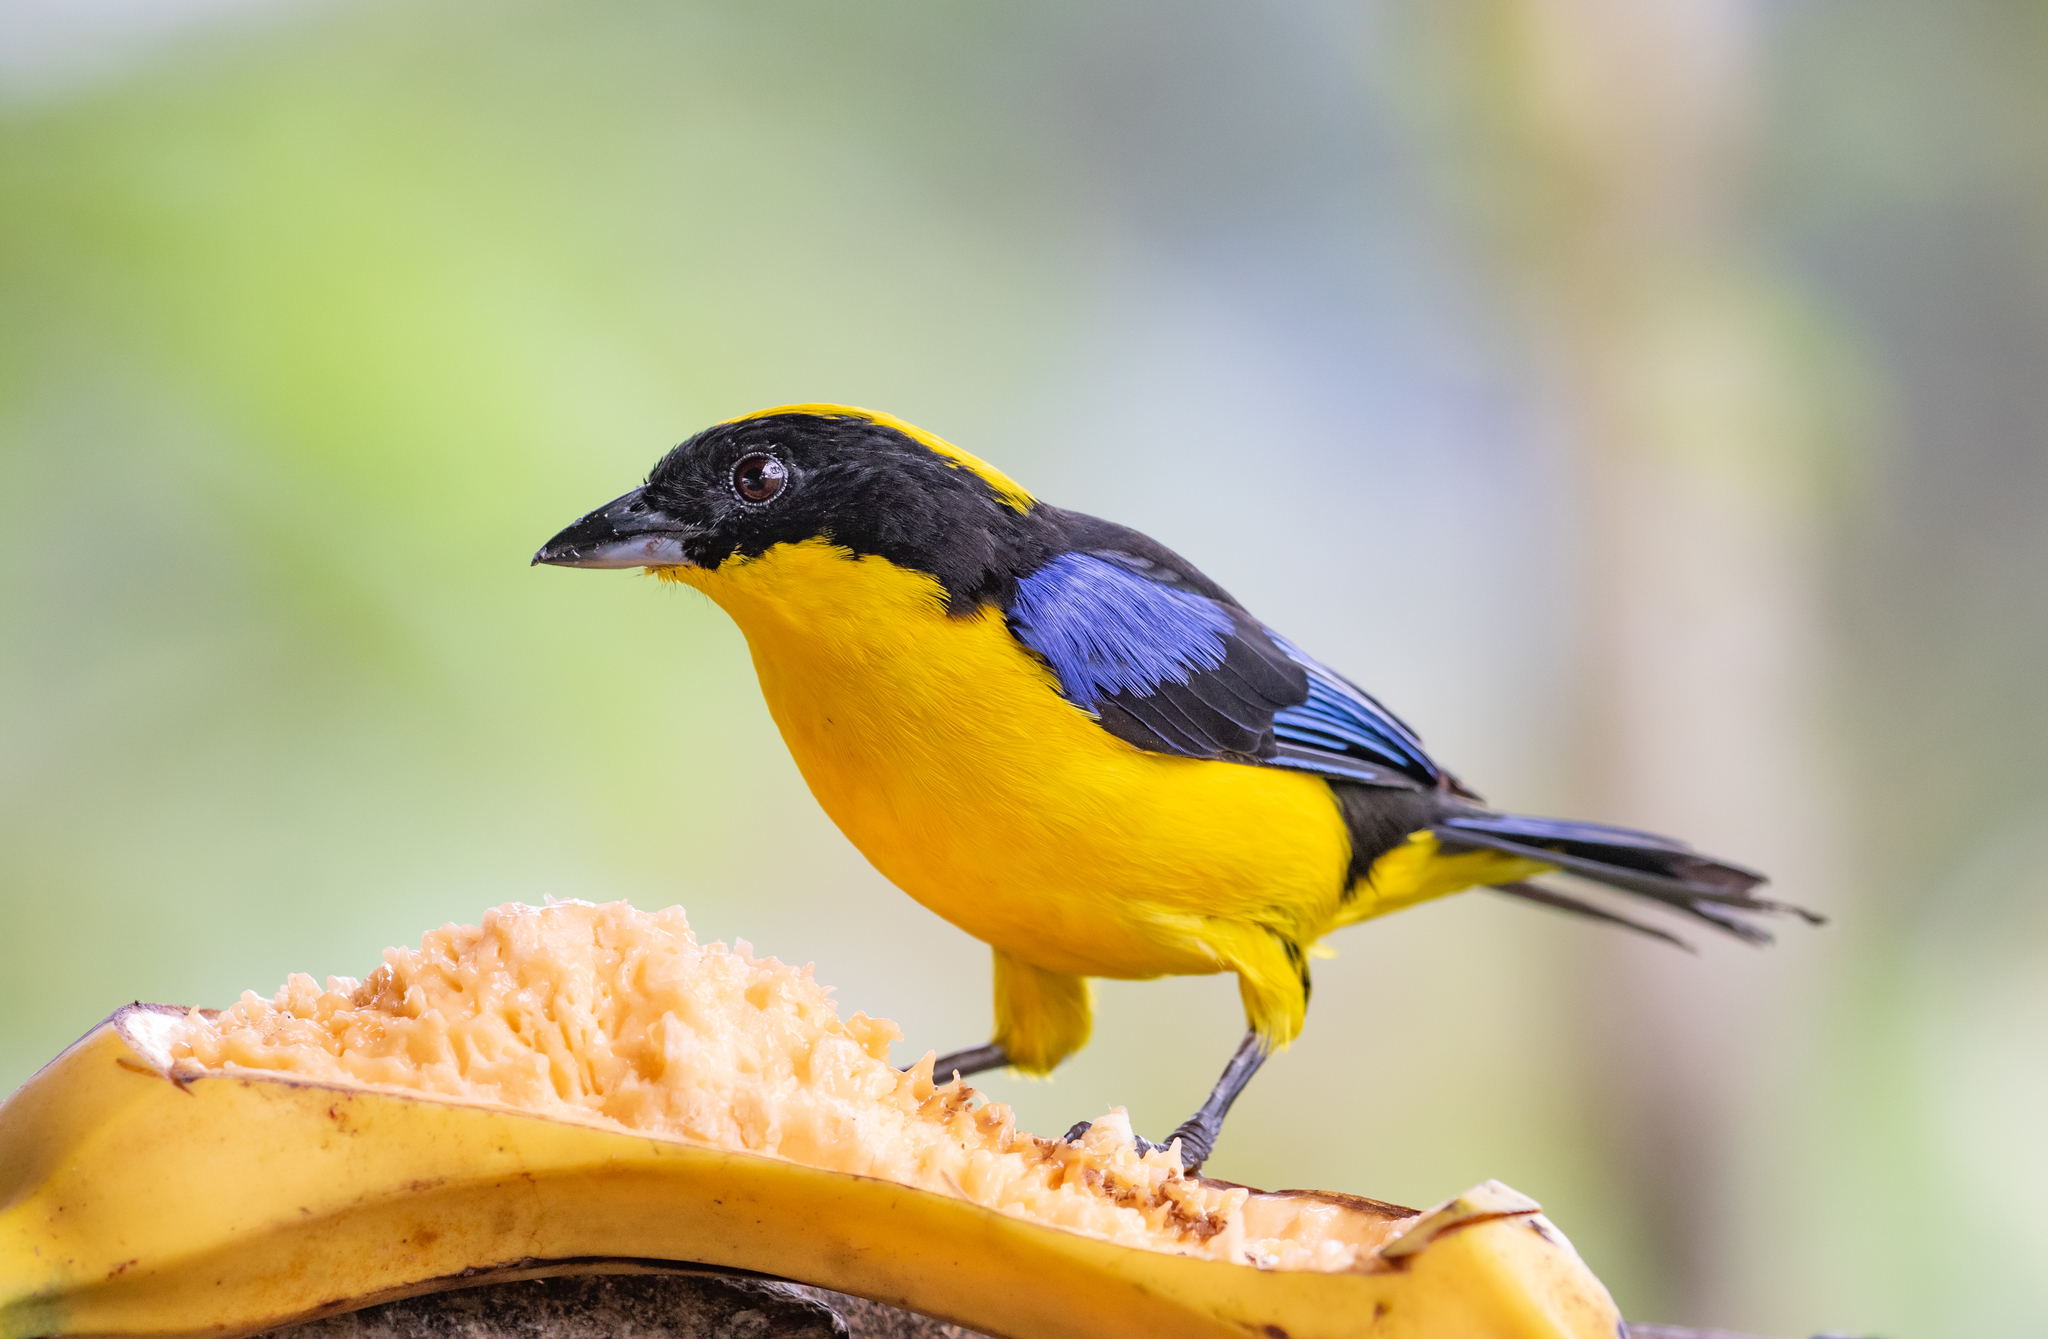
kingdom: Animalia
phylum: Chordata
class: Aves
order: Passeriformes
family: Thraupidae
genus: Anisognathus
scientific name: Anisognathus somptuosus
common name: Blue-winged mountain-tanager
